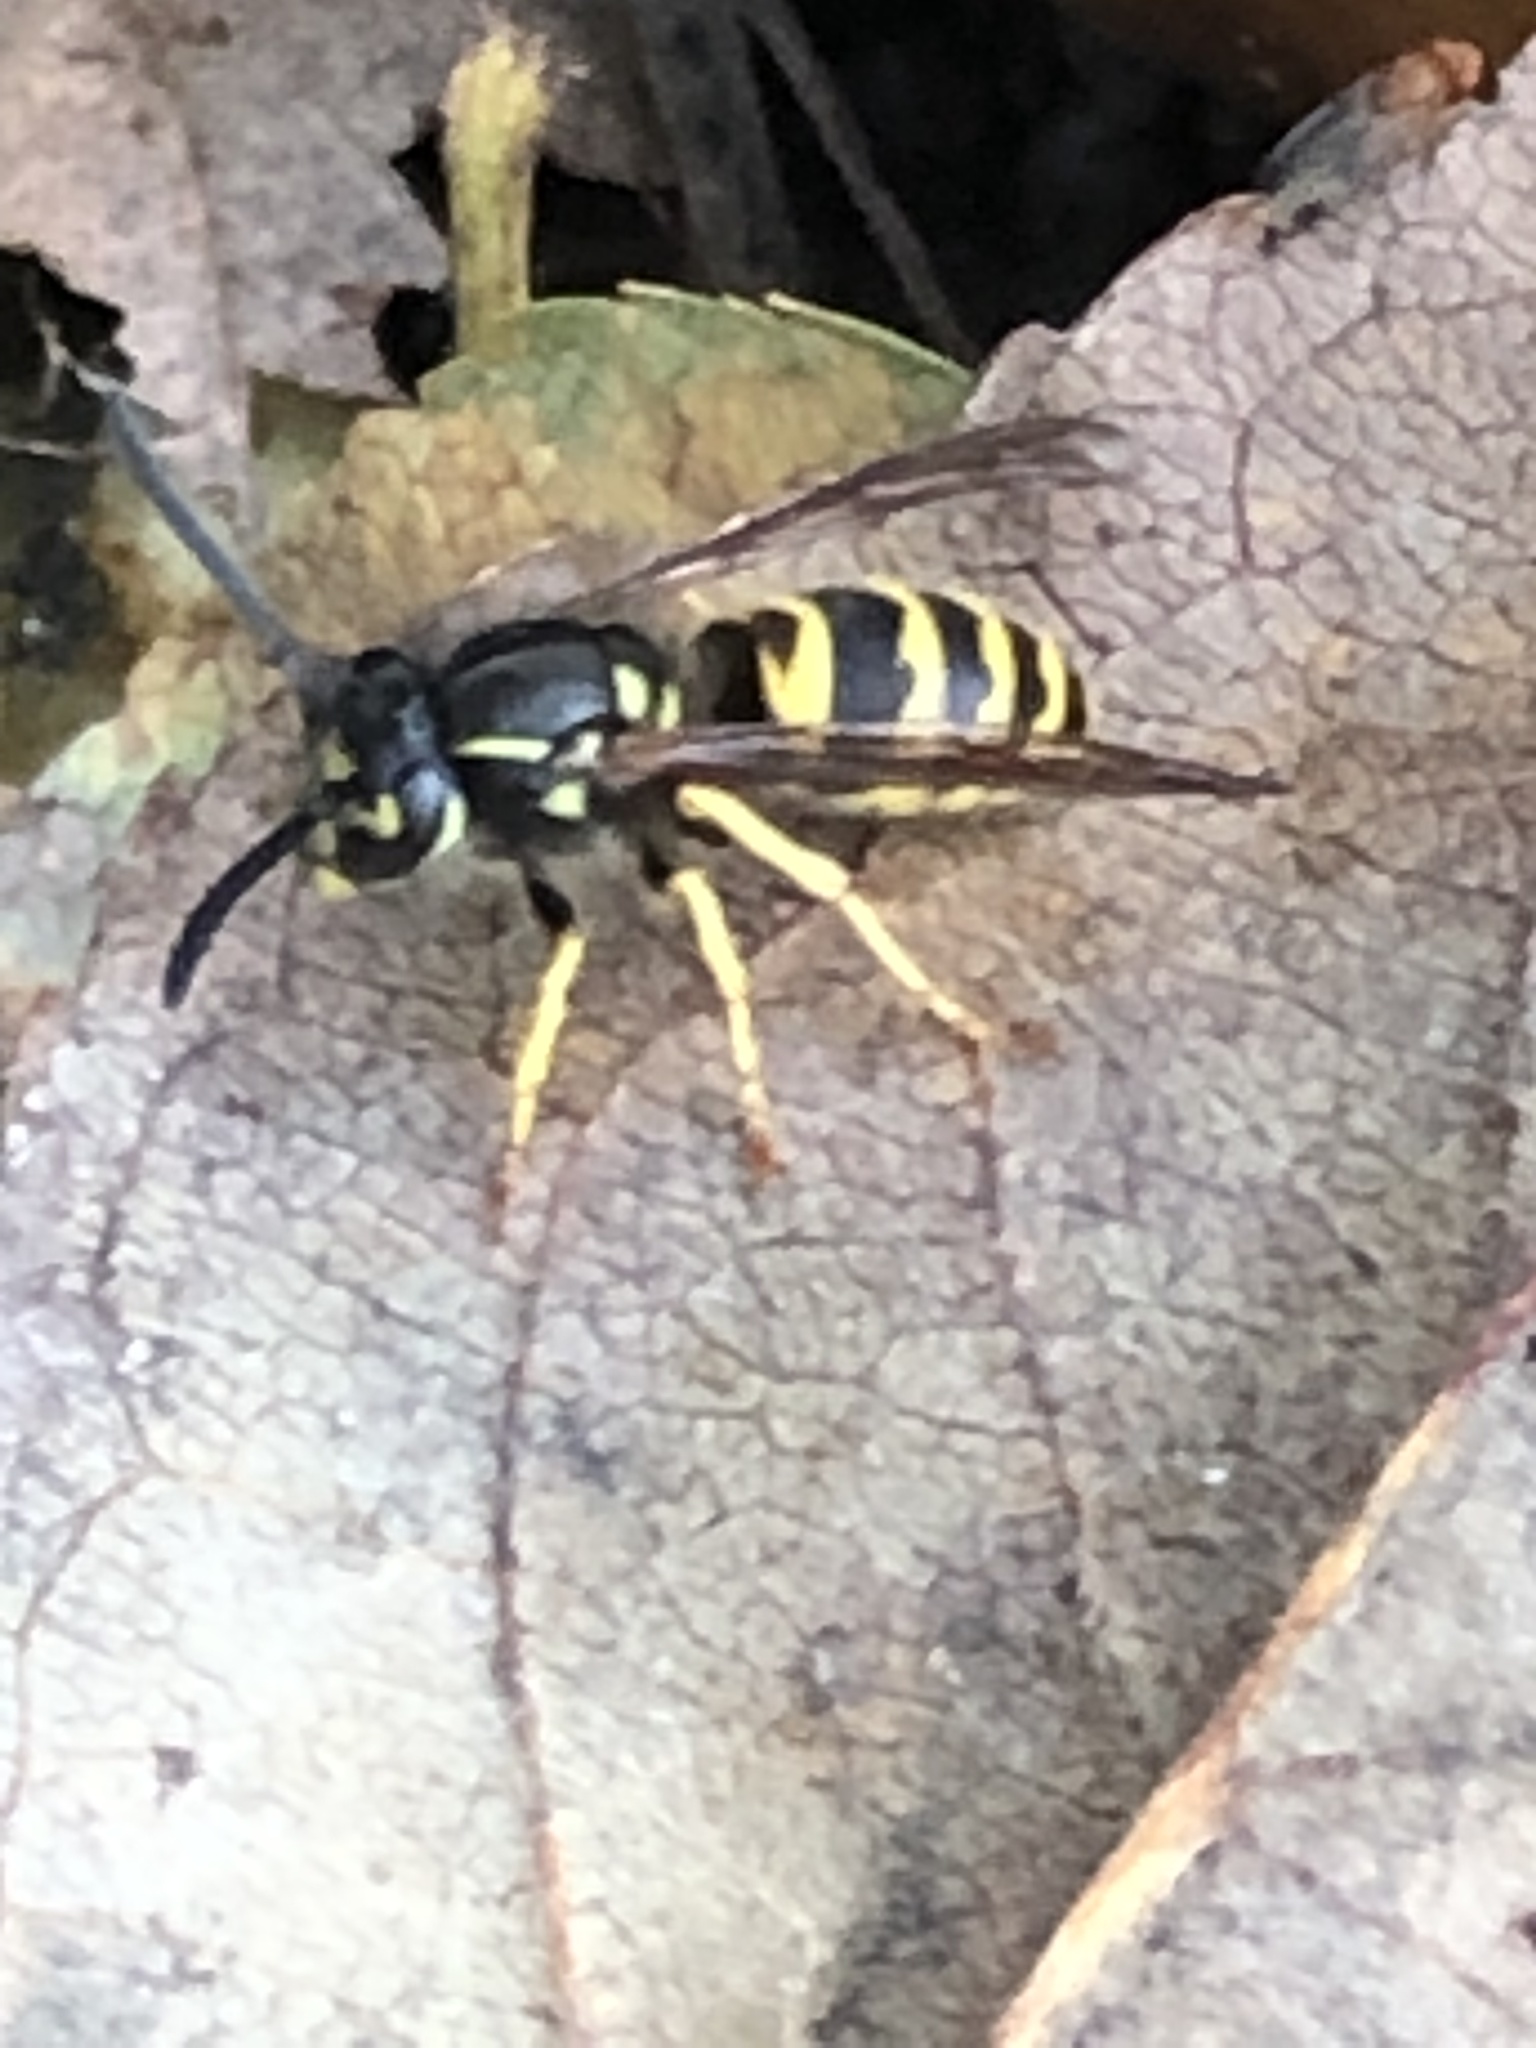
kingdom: Animalia
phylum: Arthropoda
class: Insecta
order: Hymenoptera
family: Vespidae
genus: Vespula
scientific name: Vespula alascensis
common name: Alaska yellowjacket
